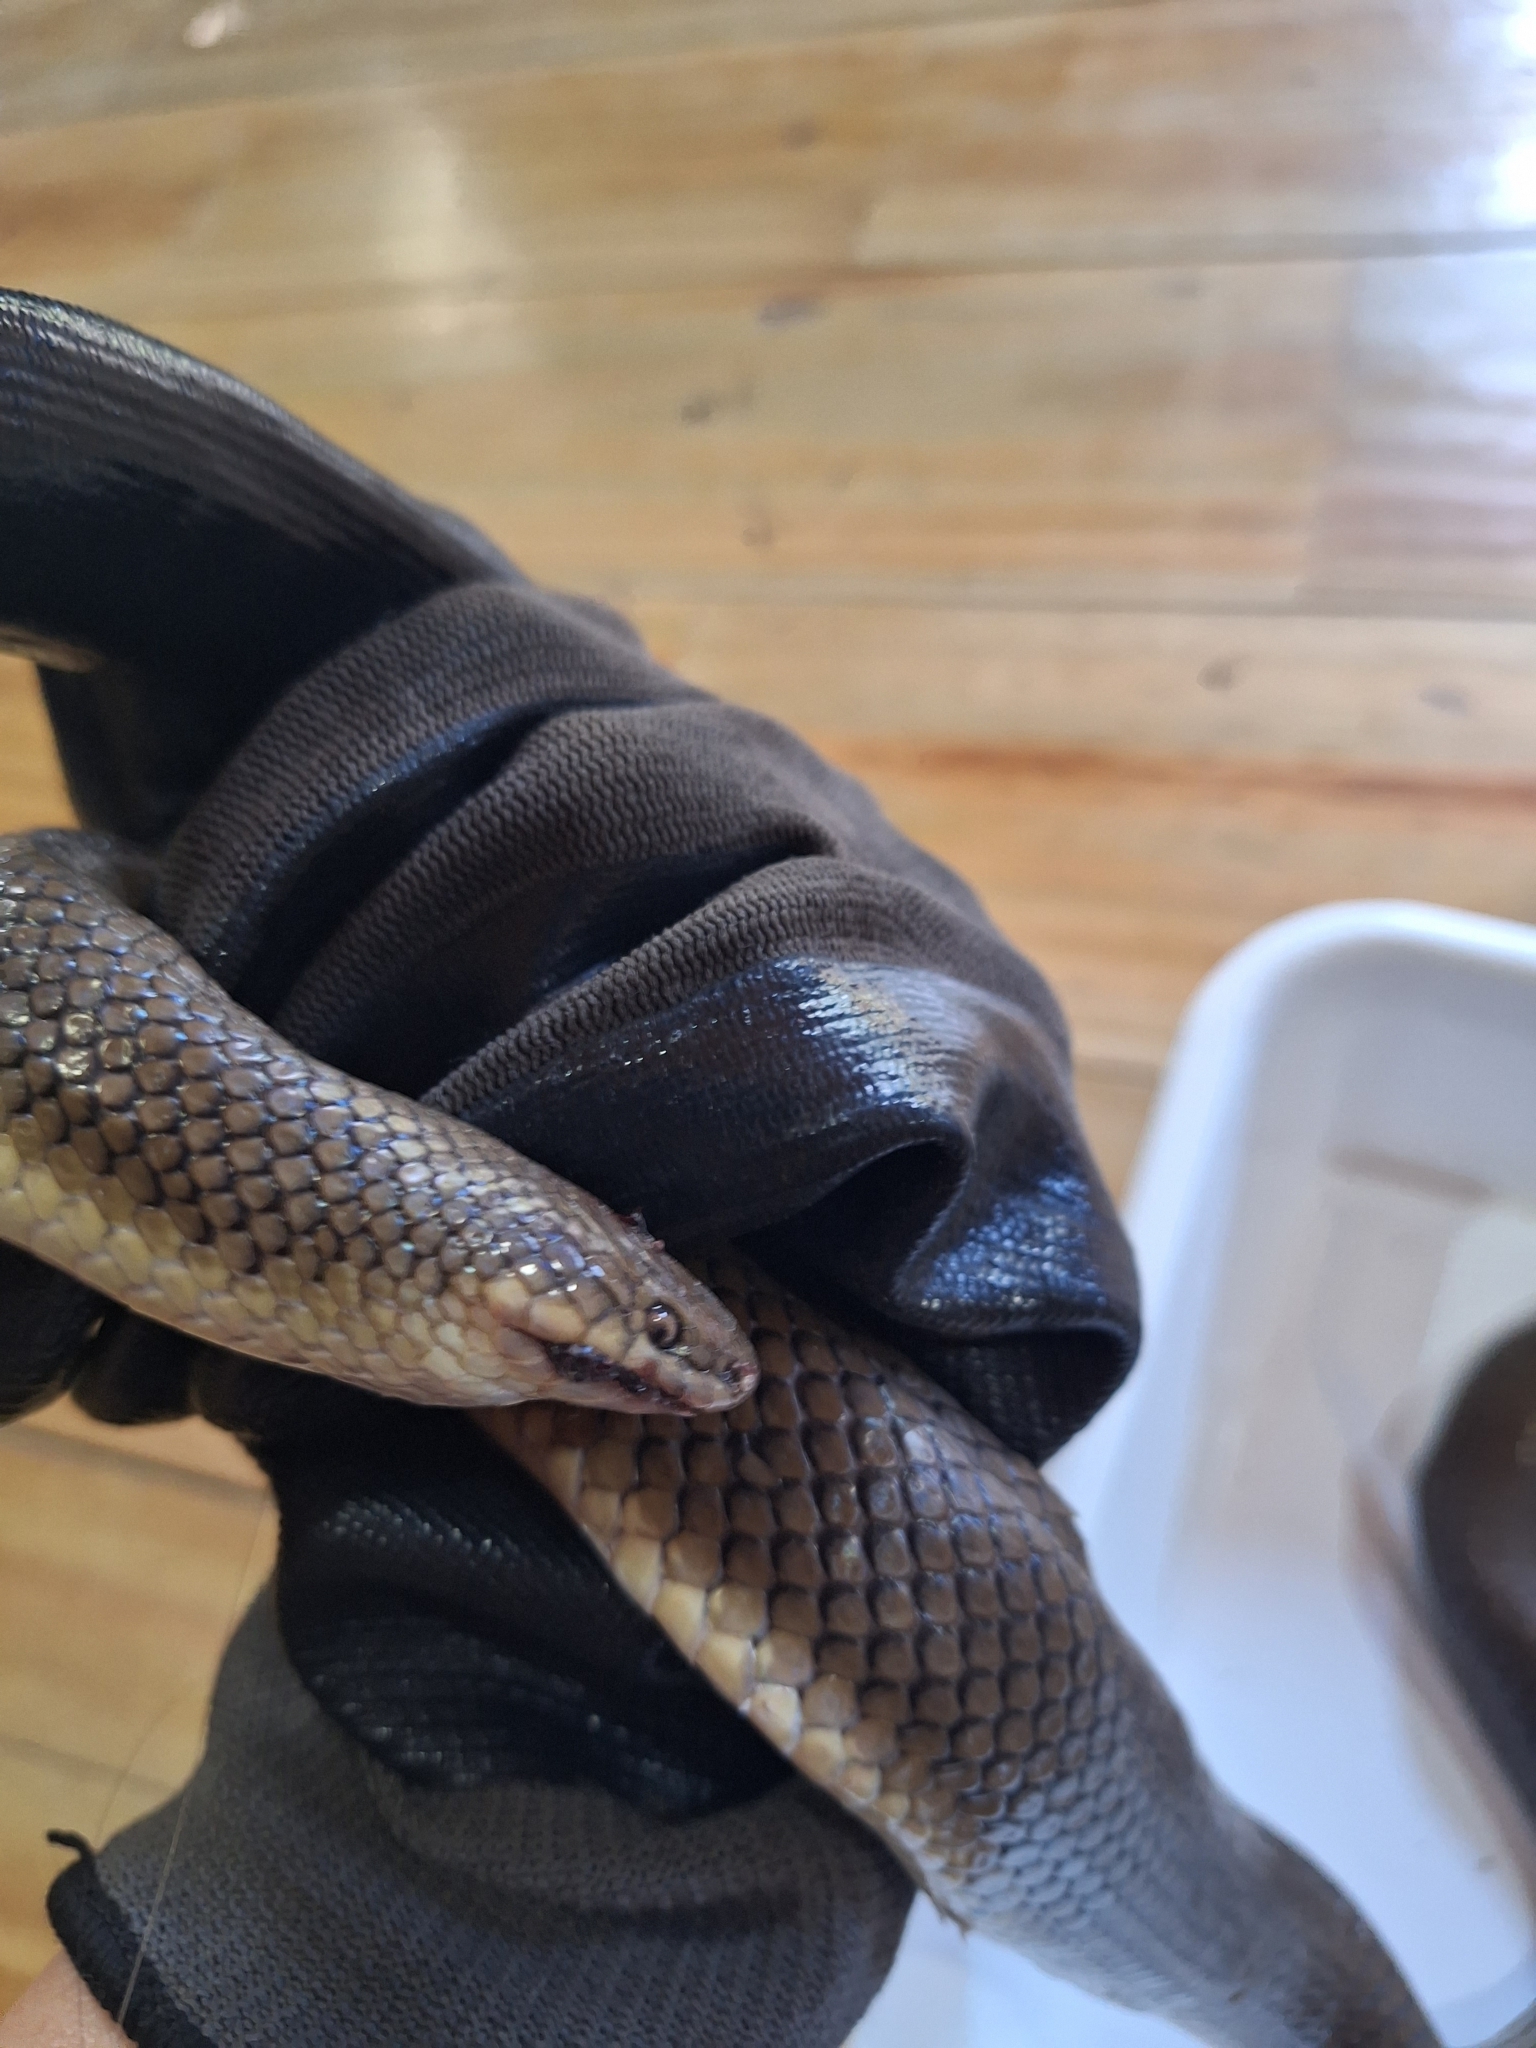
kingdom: Animalia
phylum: Chordata
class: Squamata
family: Colubridae
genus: Paraphimophis
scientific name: Paraphimophis rusticus
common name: Culebra
